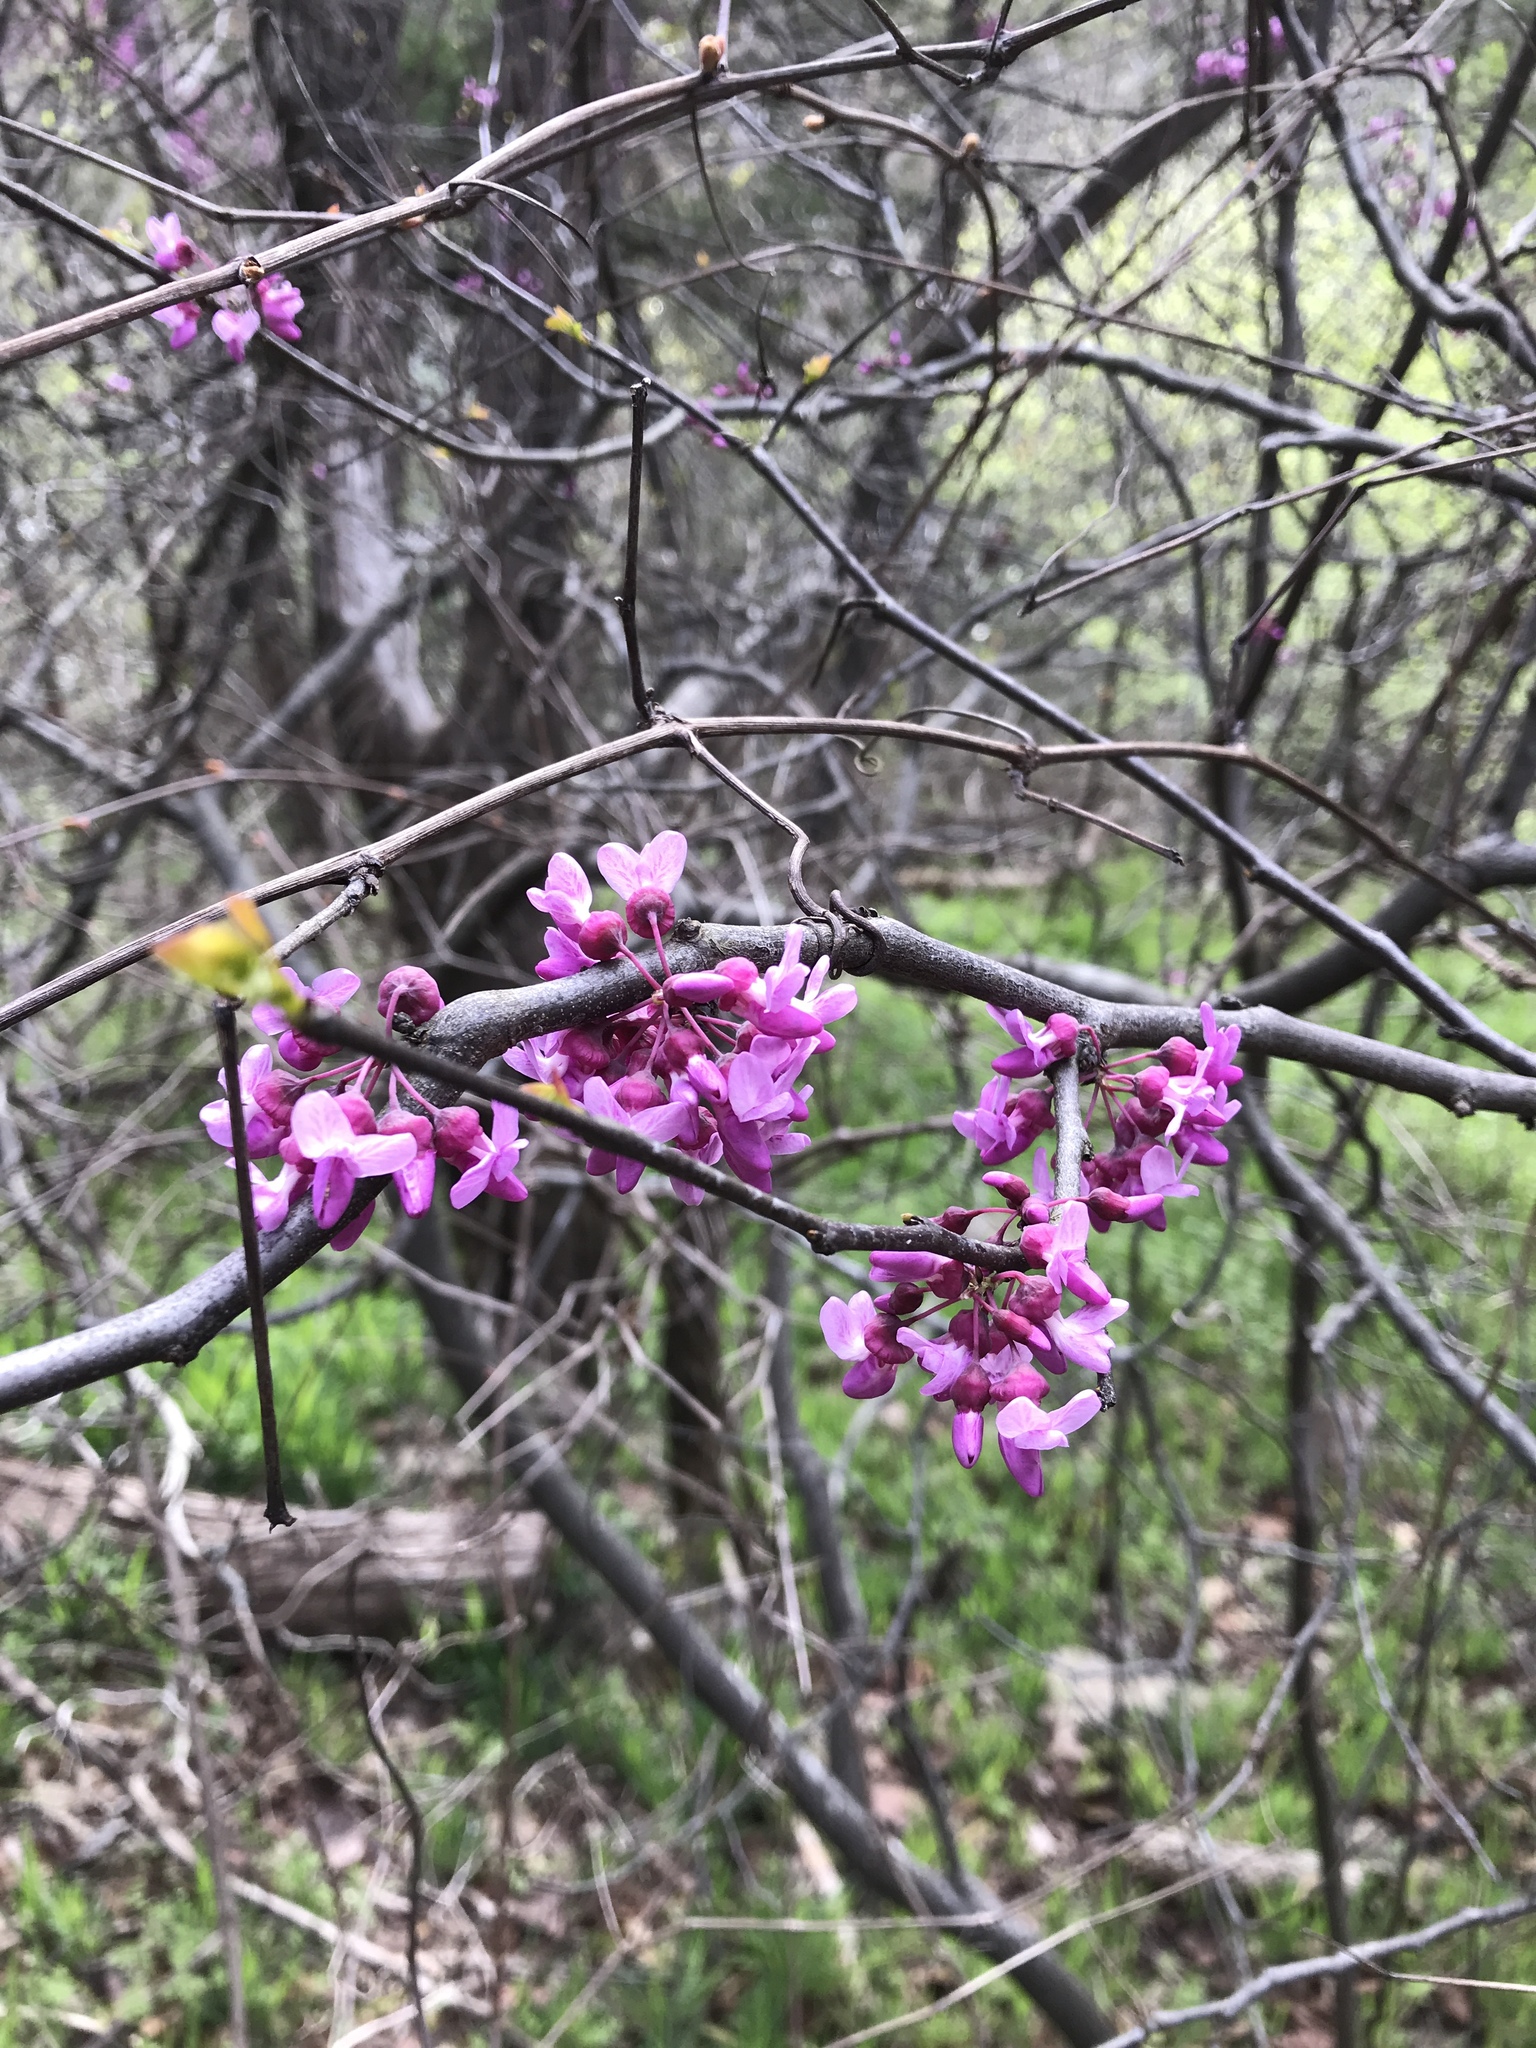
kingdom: Plantae
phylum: Tracheophyta
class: Magnoliopsida
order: Fabales
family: Fabaceae
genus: Cercis
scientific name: Cercis canadensis
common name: Eastern redbud
